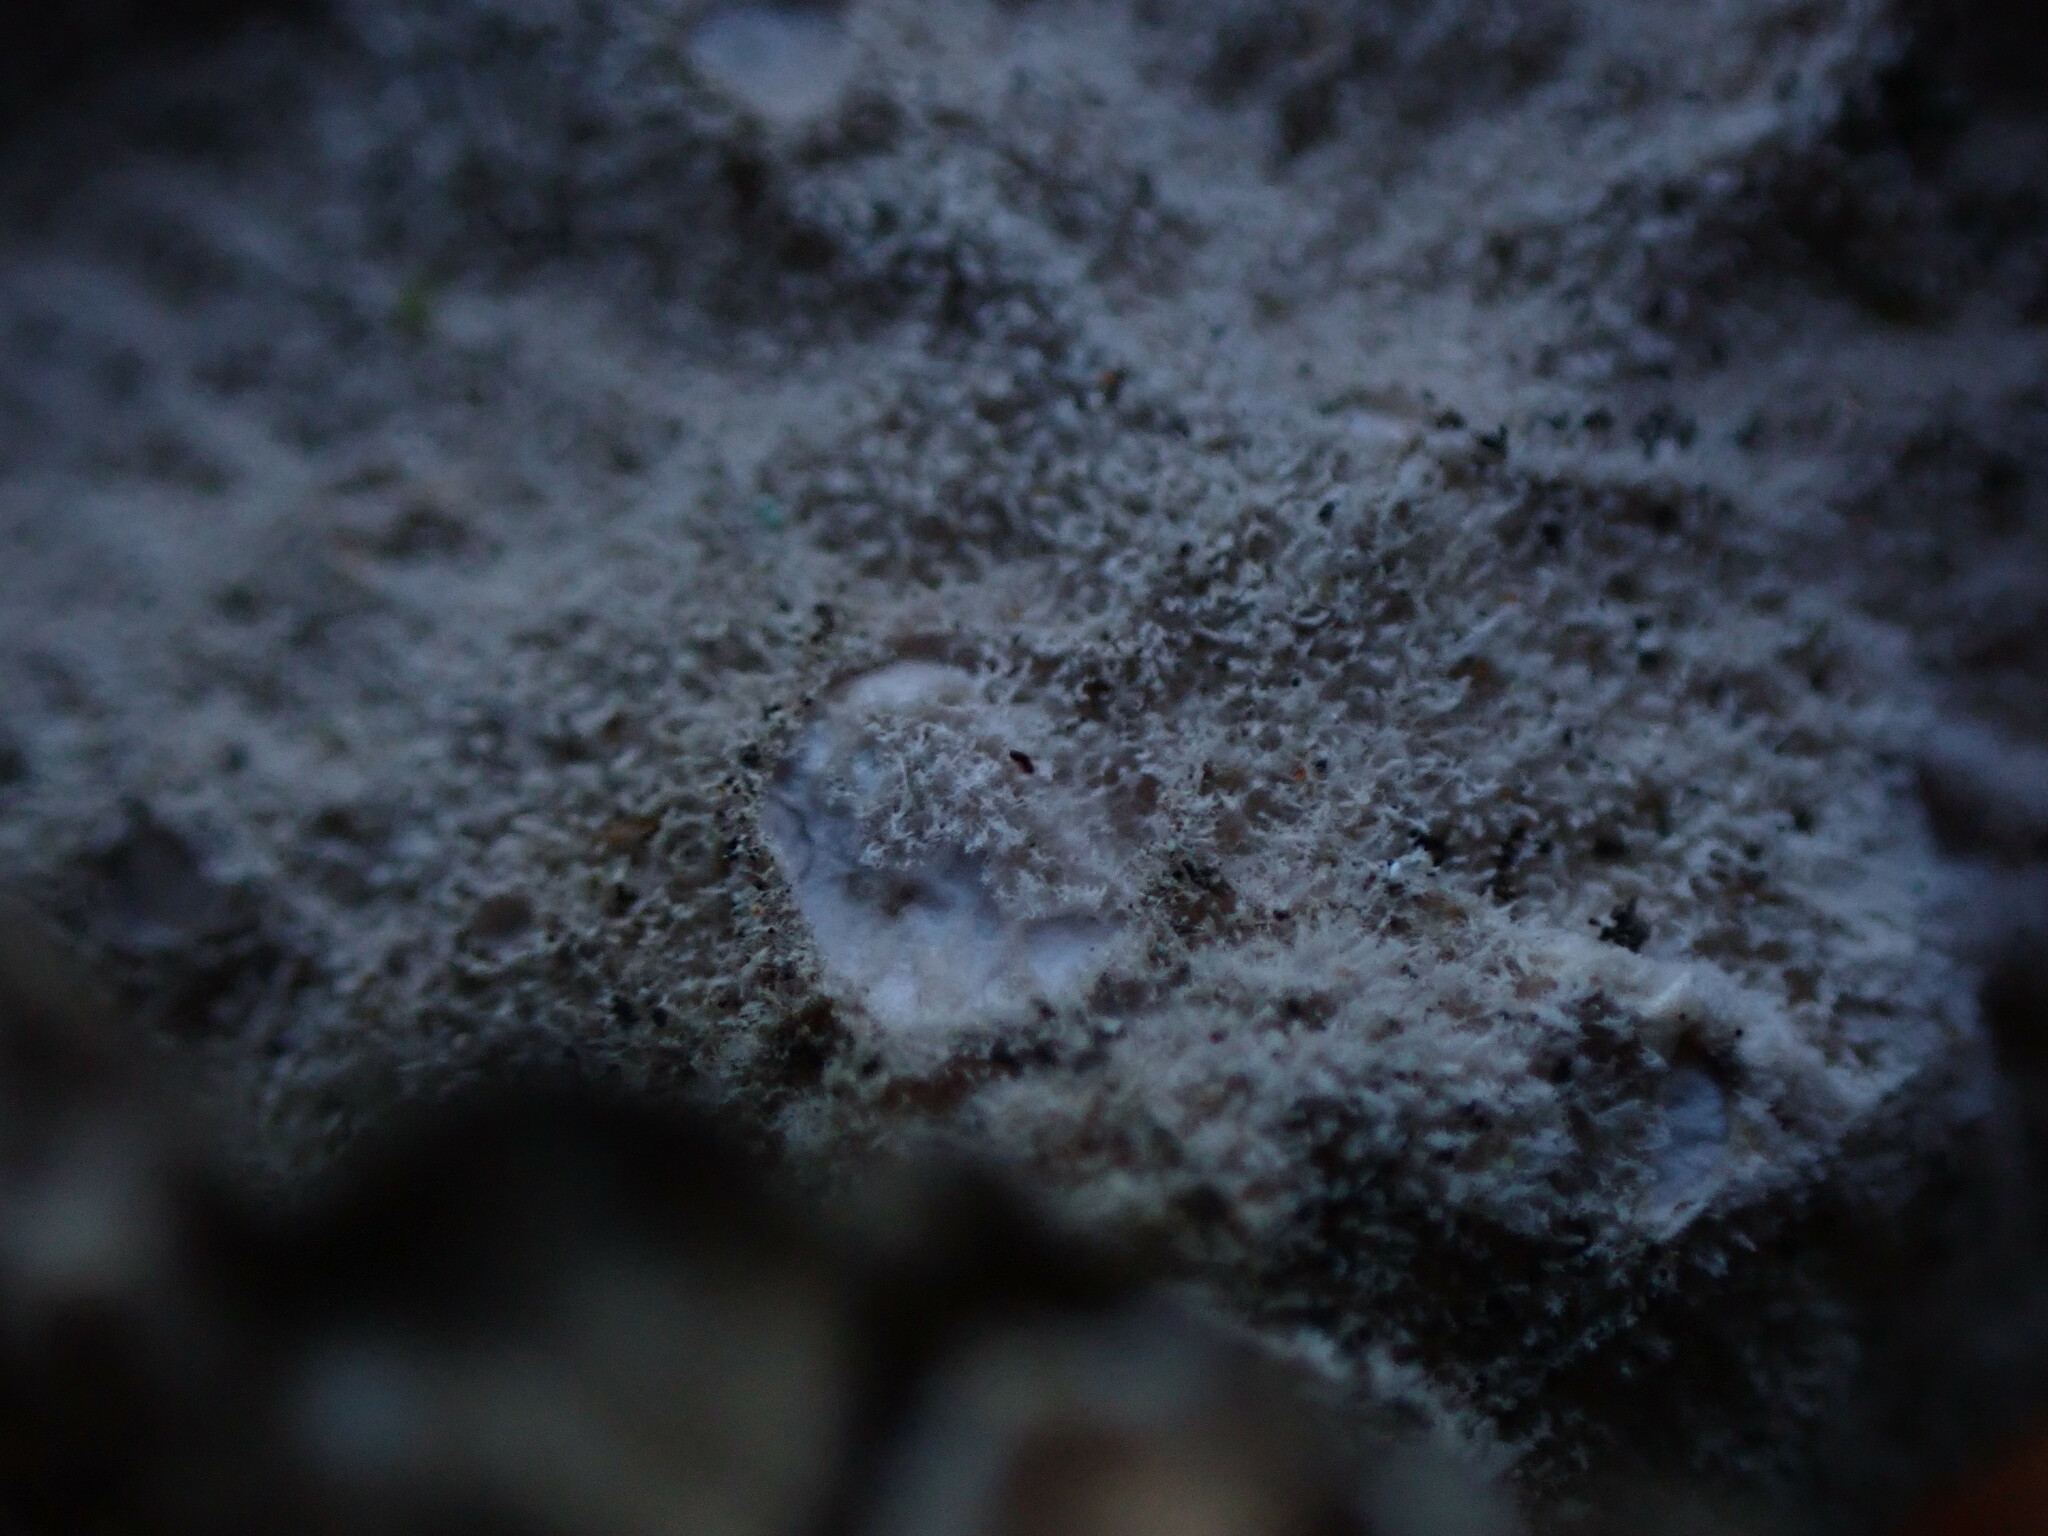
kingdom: Fungi
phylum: Ascomycota
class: Lecanoromycetes
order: Peltigerales
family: Lobariaceae
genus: Sticta
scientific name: Sticta
